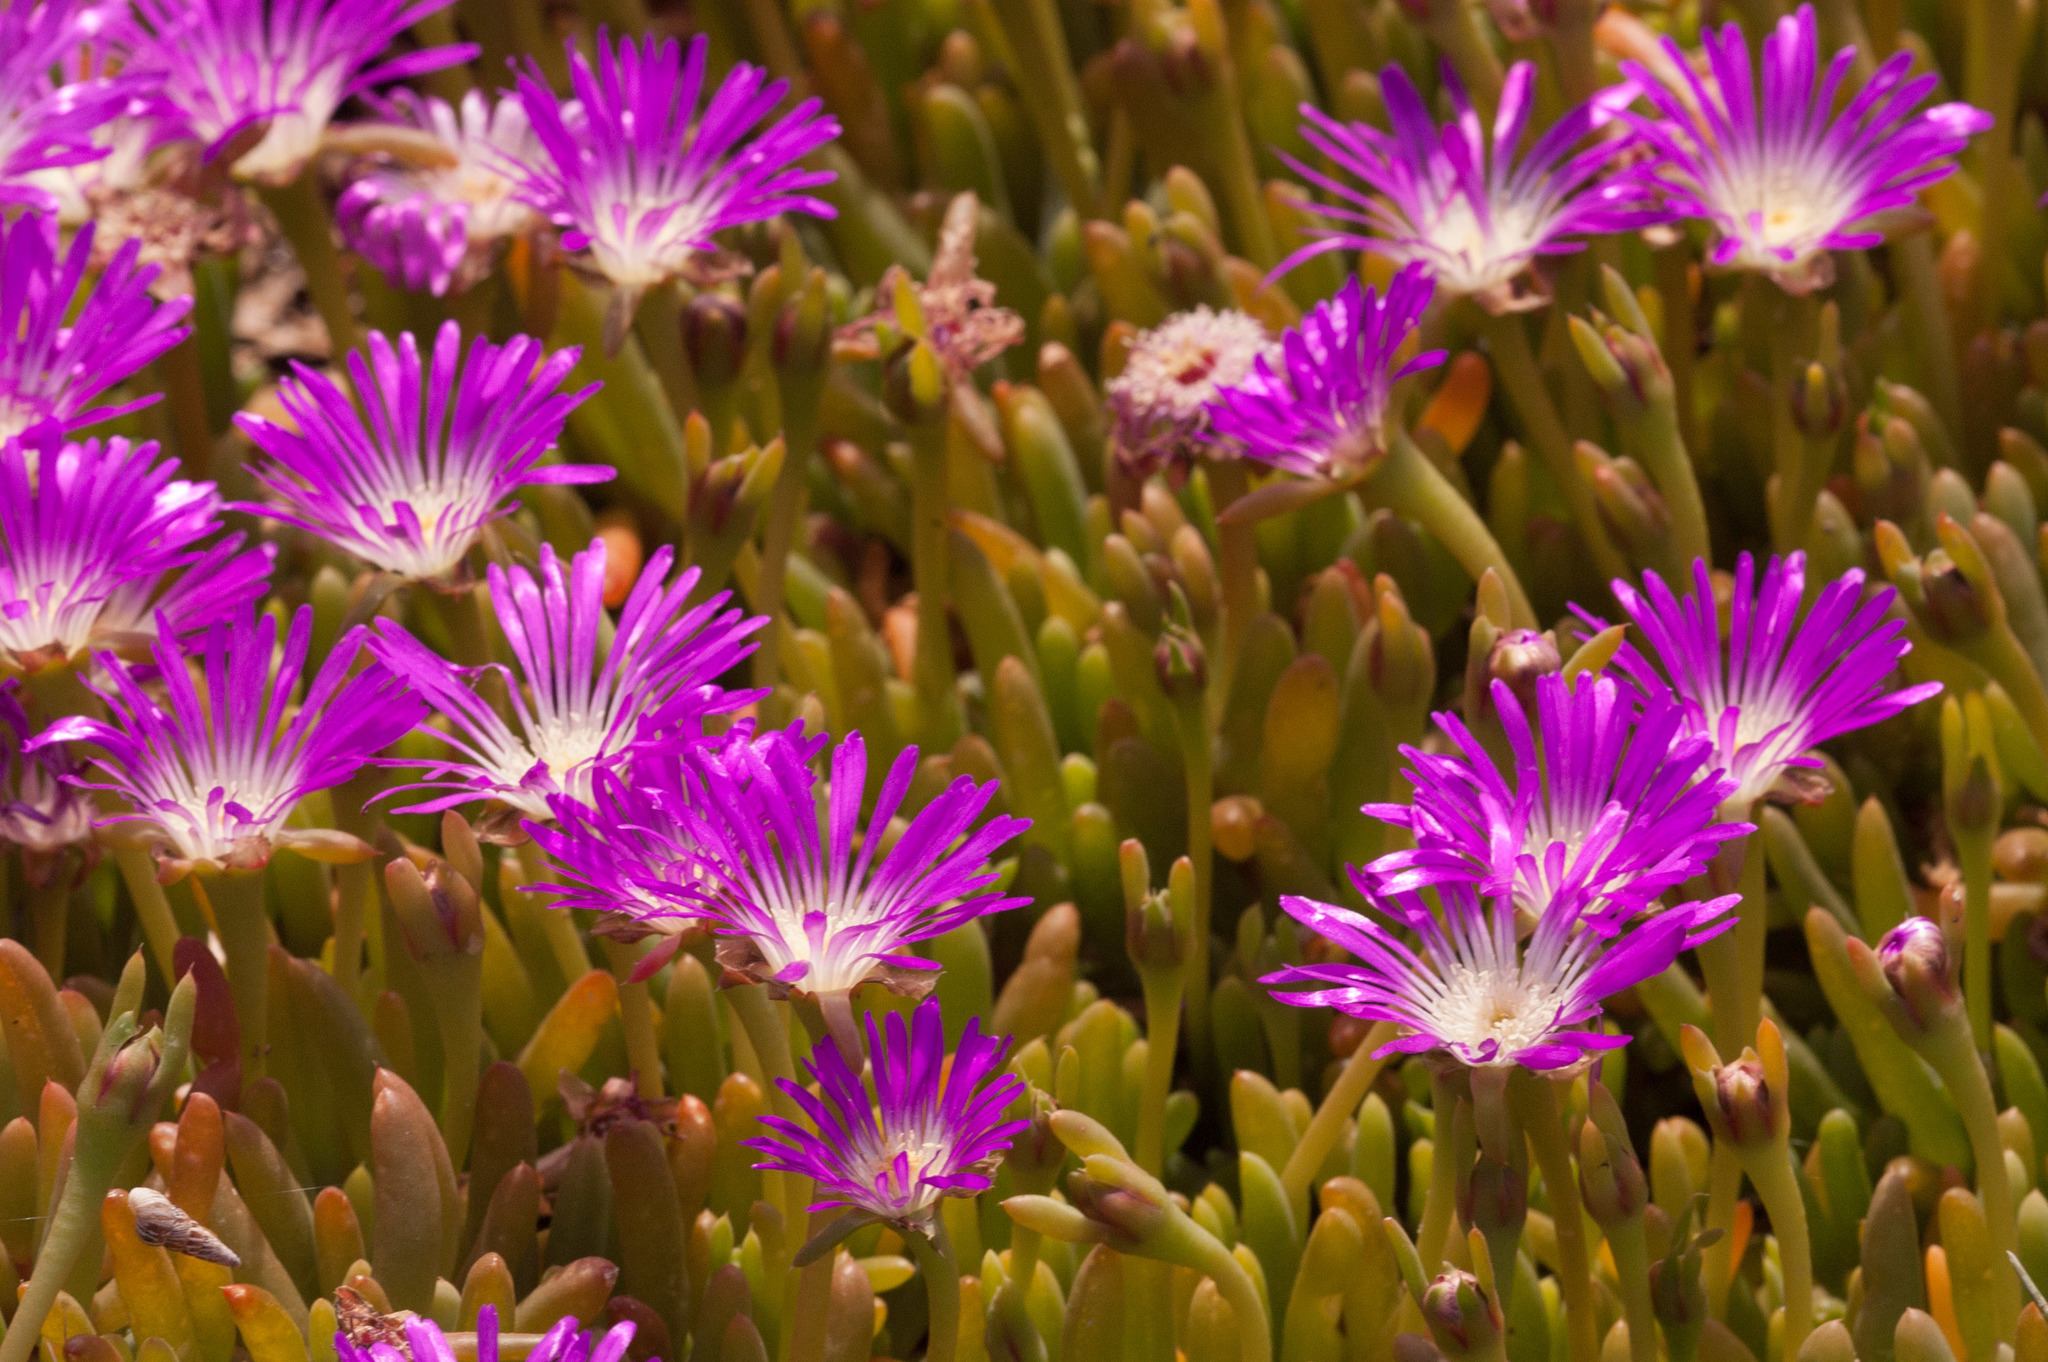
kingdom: Plantae
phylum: Tracheophyta
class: Magnoliopsida
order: Caryophyllales
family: Aizoaceae
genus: Disphyma
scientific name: Disphyma crassifolium
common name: Purple dewplant
